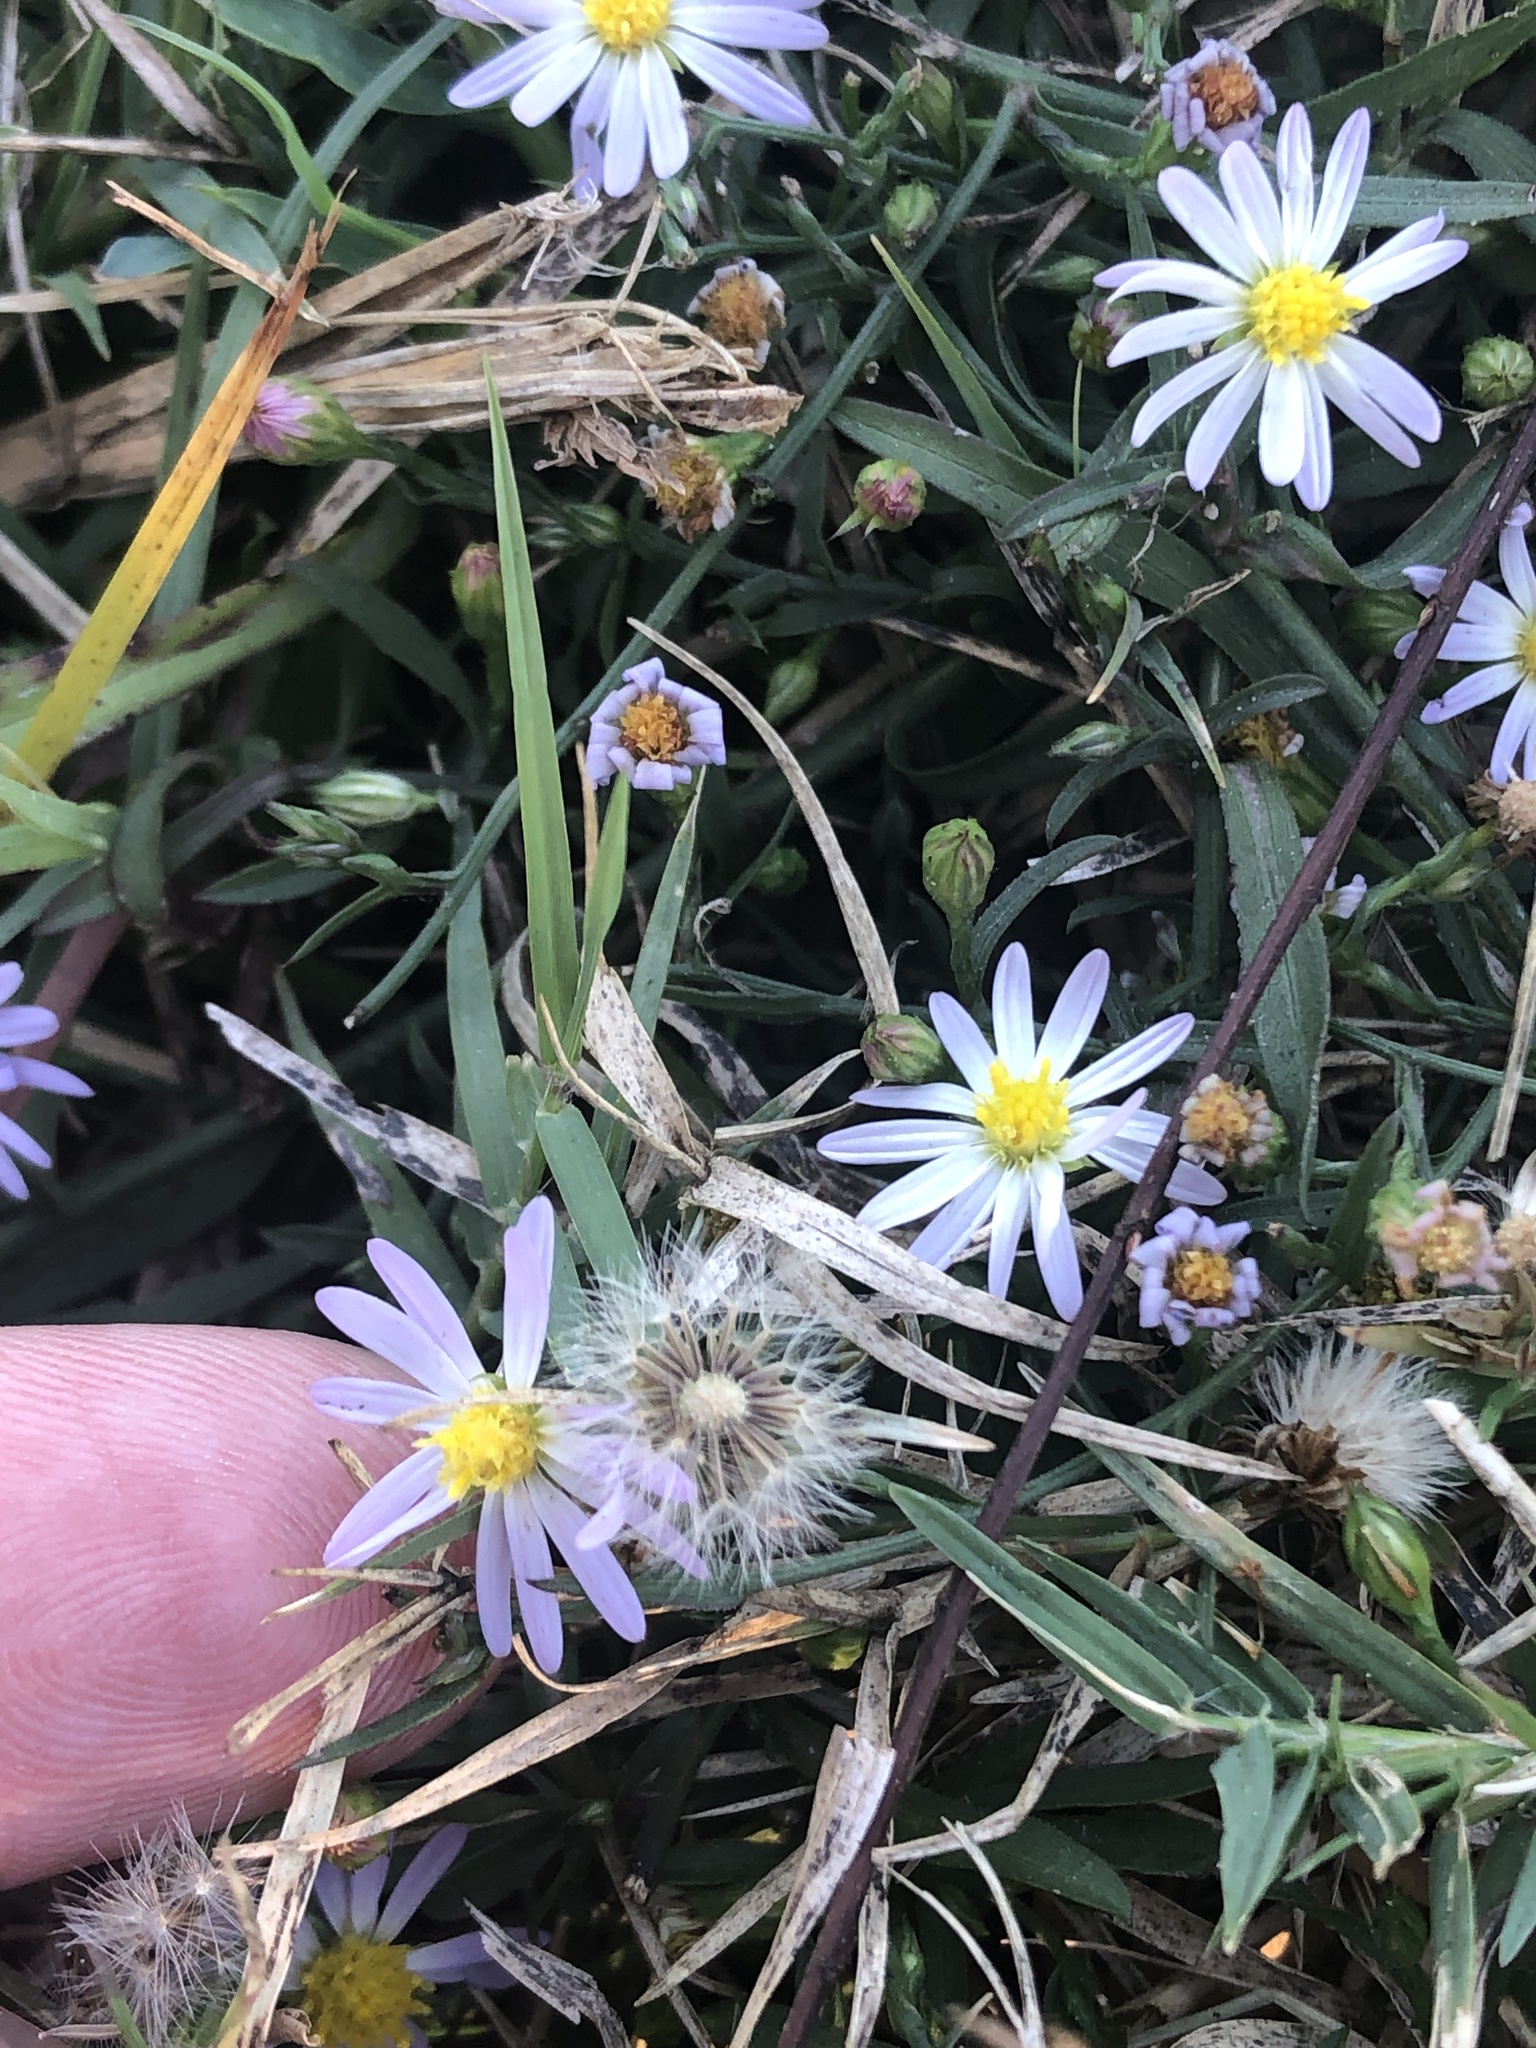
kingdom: Plantae
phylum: Tracheophyta
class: Magnoliopsida
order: Asterales
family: Asteraceae
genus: Symphyotrichum
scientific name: Symphyotrichum divaricatum
